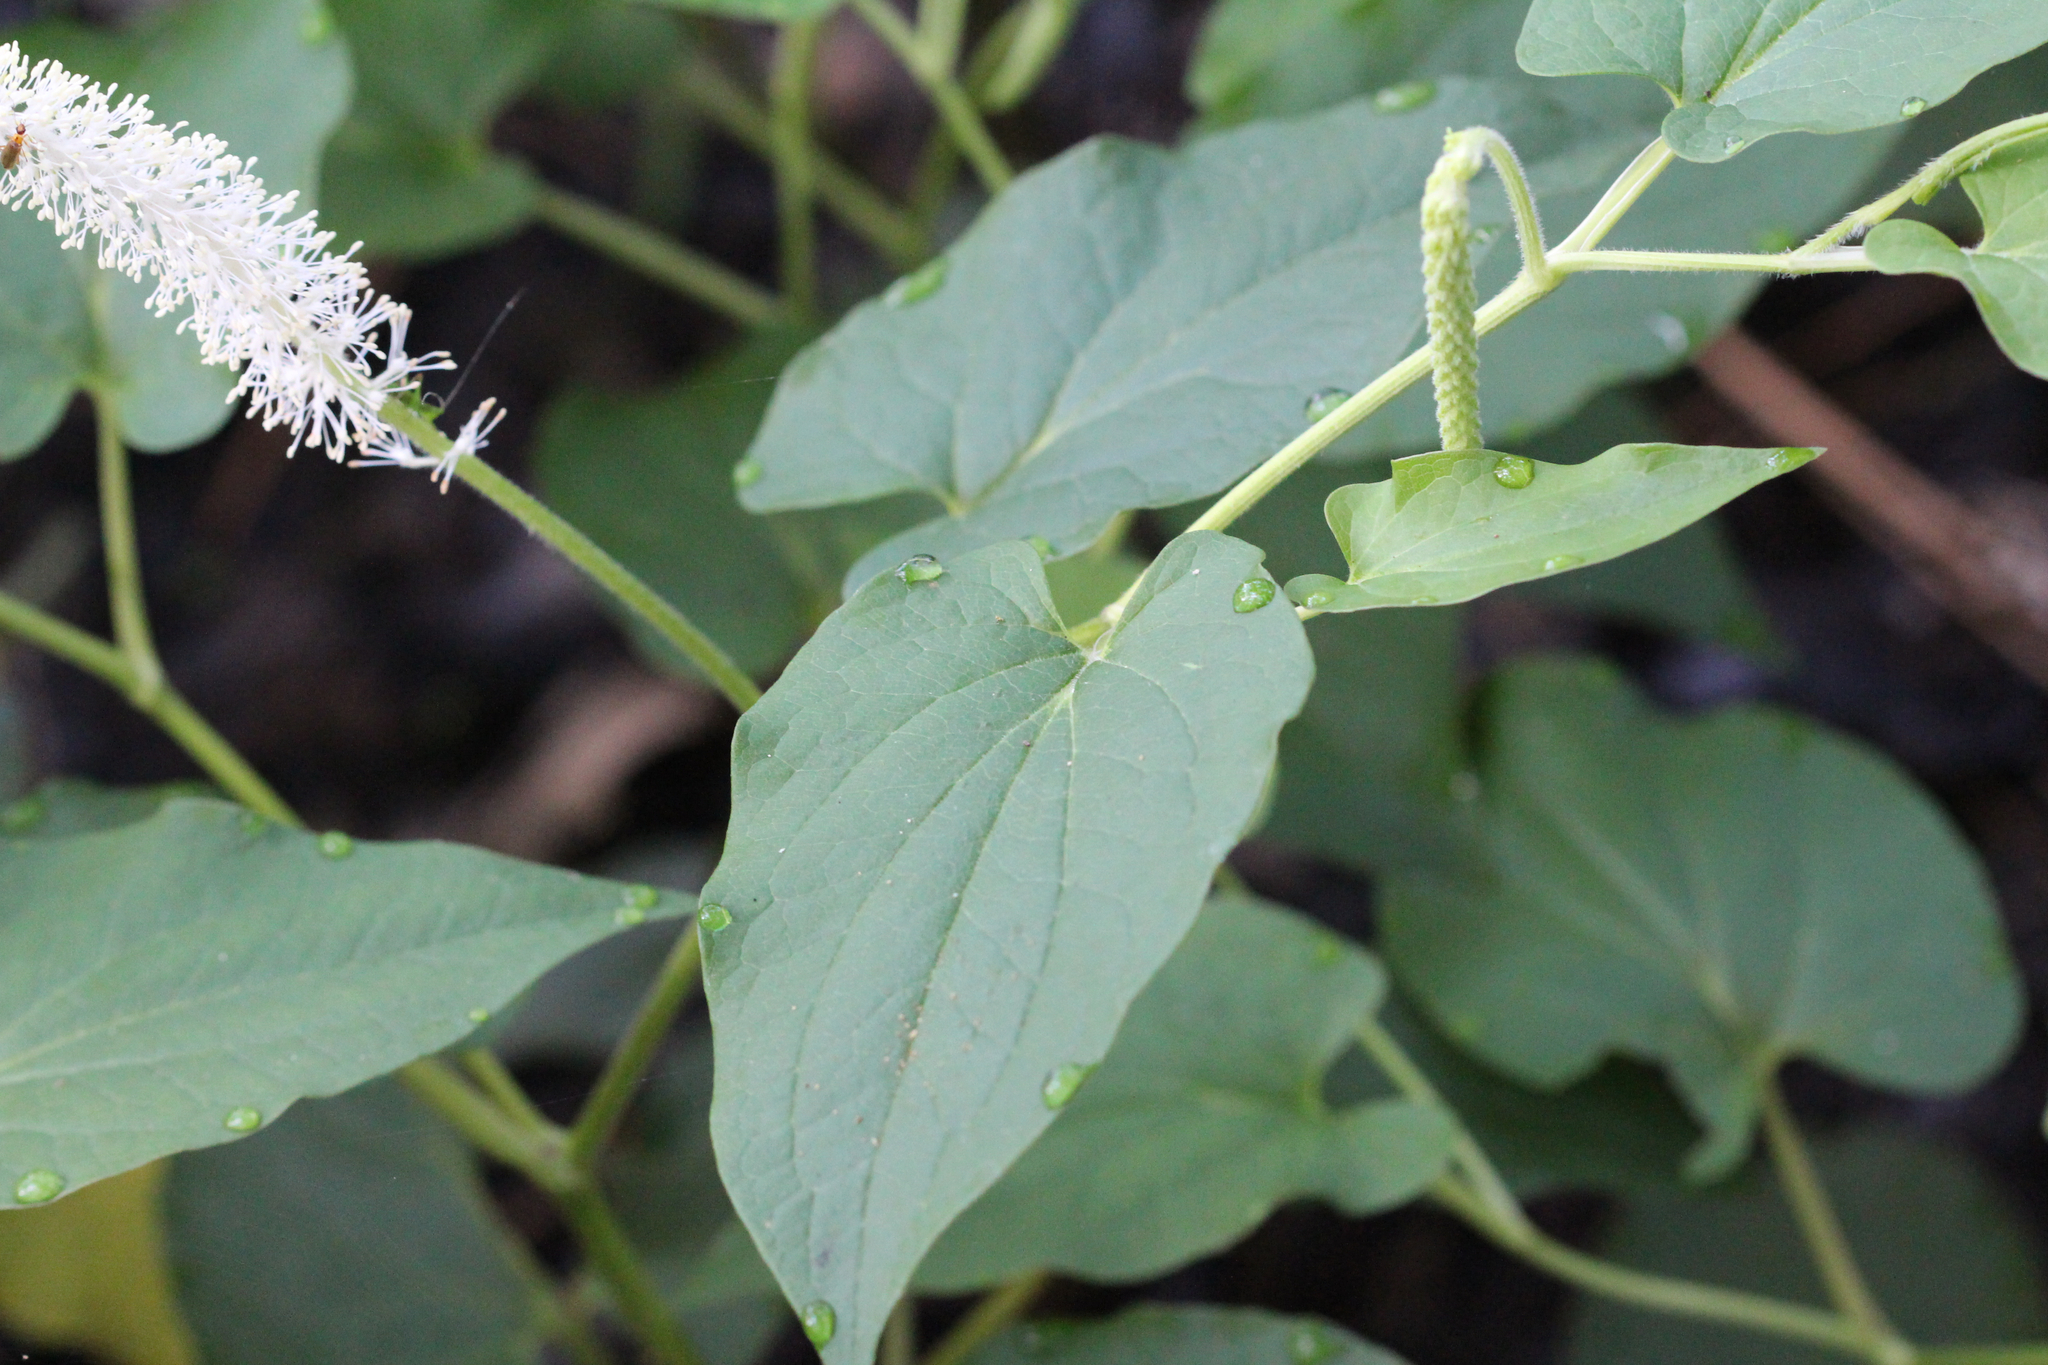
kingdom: Plantae
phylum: Tracheophyta
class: Magnoliopsida
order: Piperales
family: Saururaceae
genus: Saururus
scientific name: Saururus cernuus
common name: Lizard's-tail
